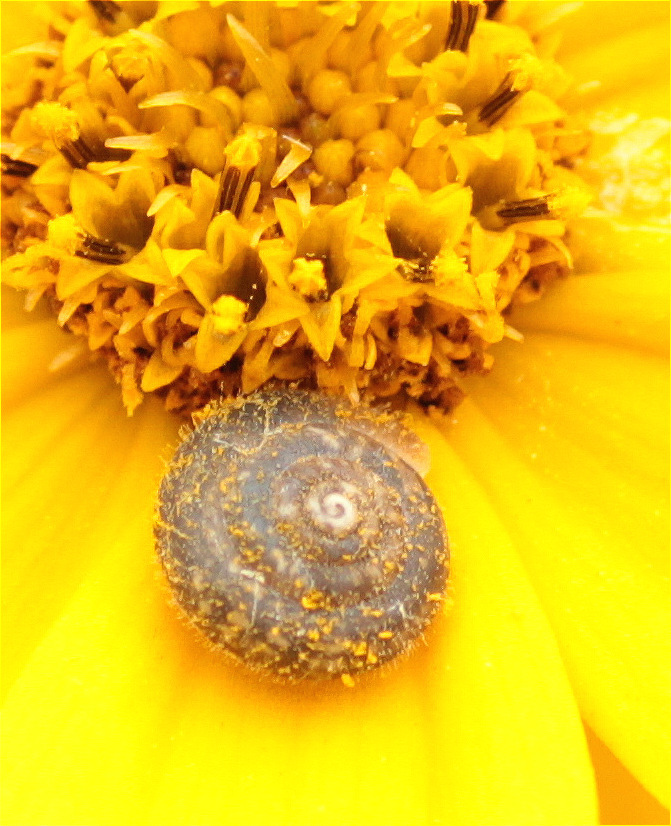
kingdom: Animalia
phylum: Mollusca
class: Gastropoda
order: Stylommatophora
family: Hygromiidae
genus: Trochulus
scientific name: Trochulus hispidus
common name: Hairy snail
